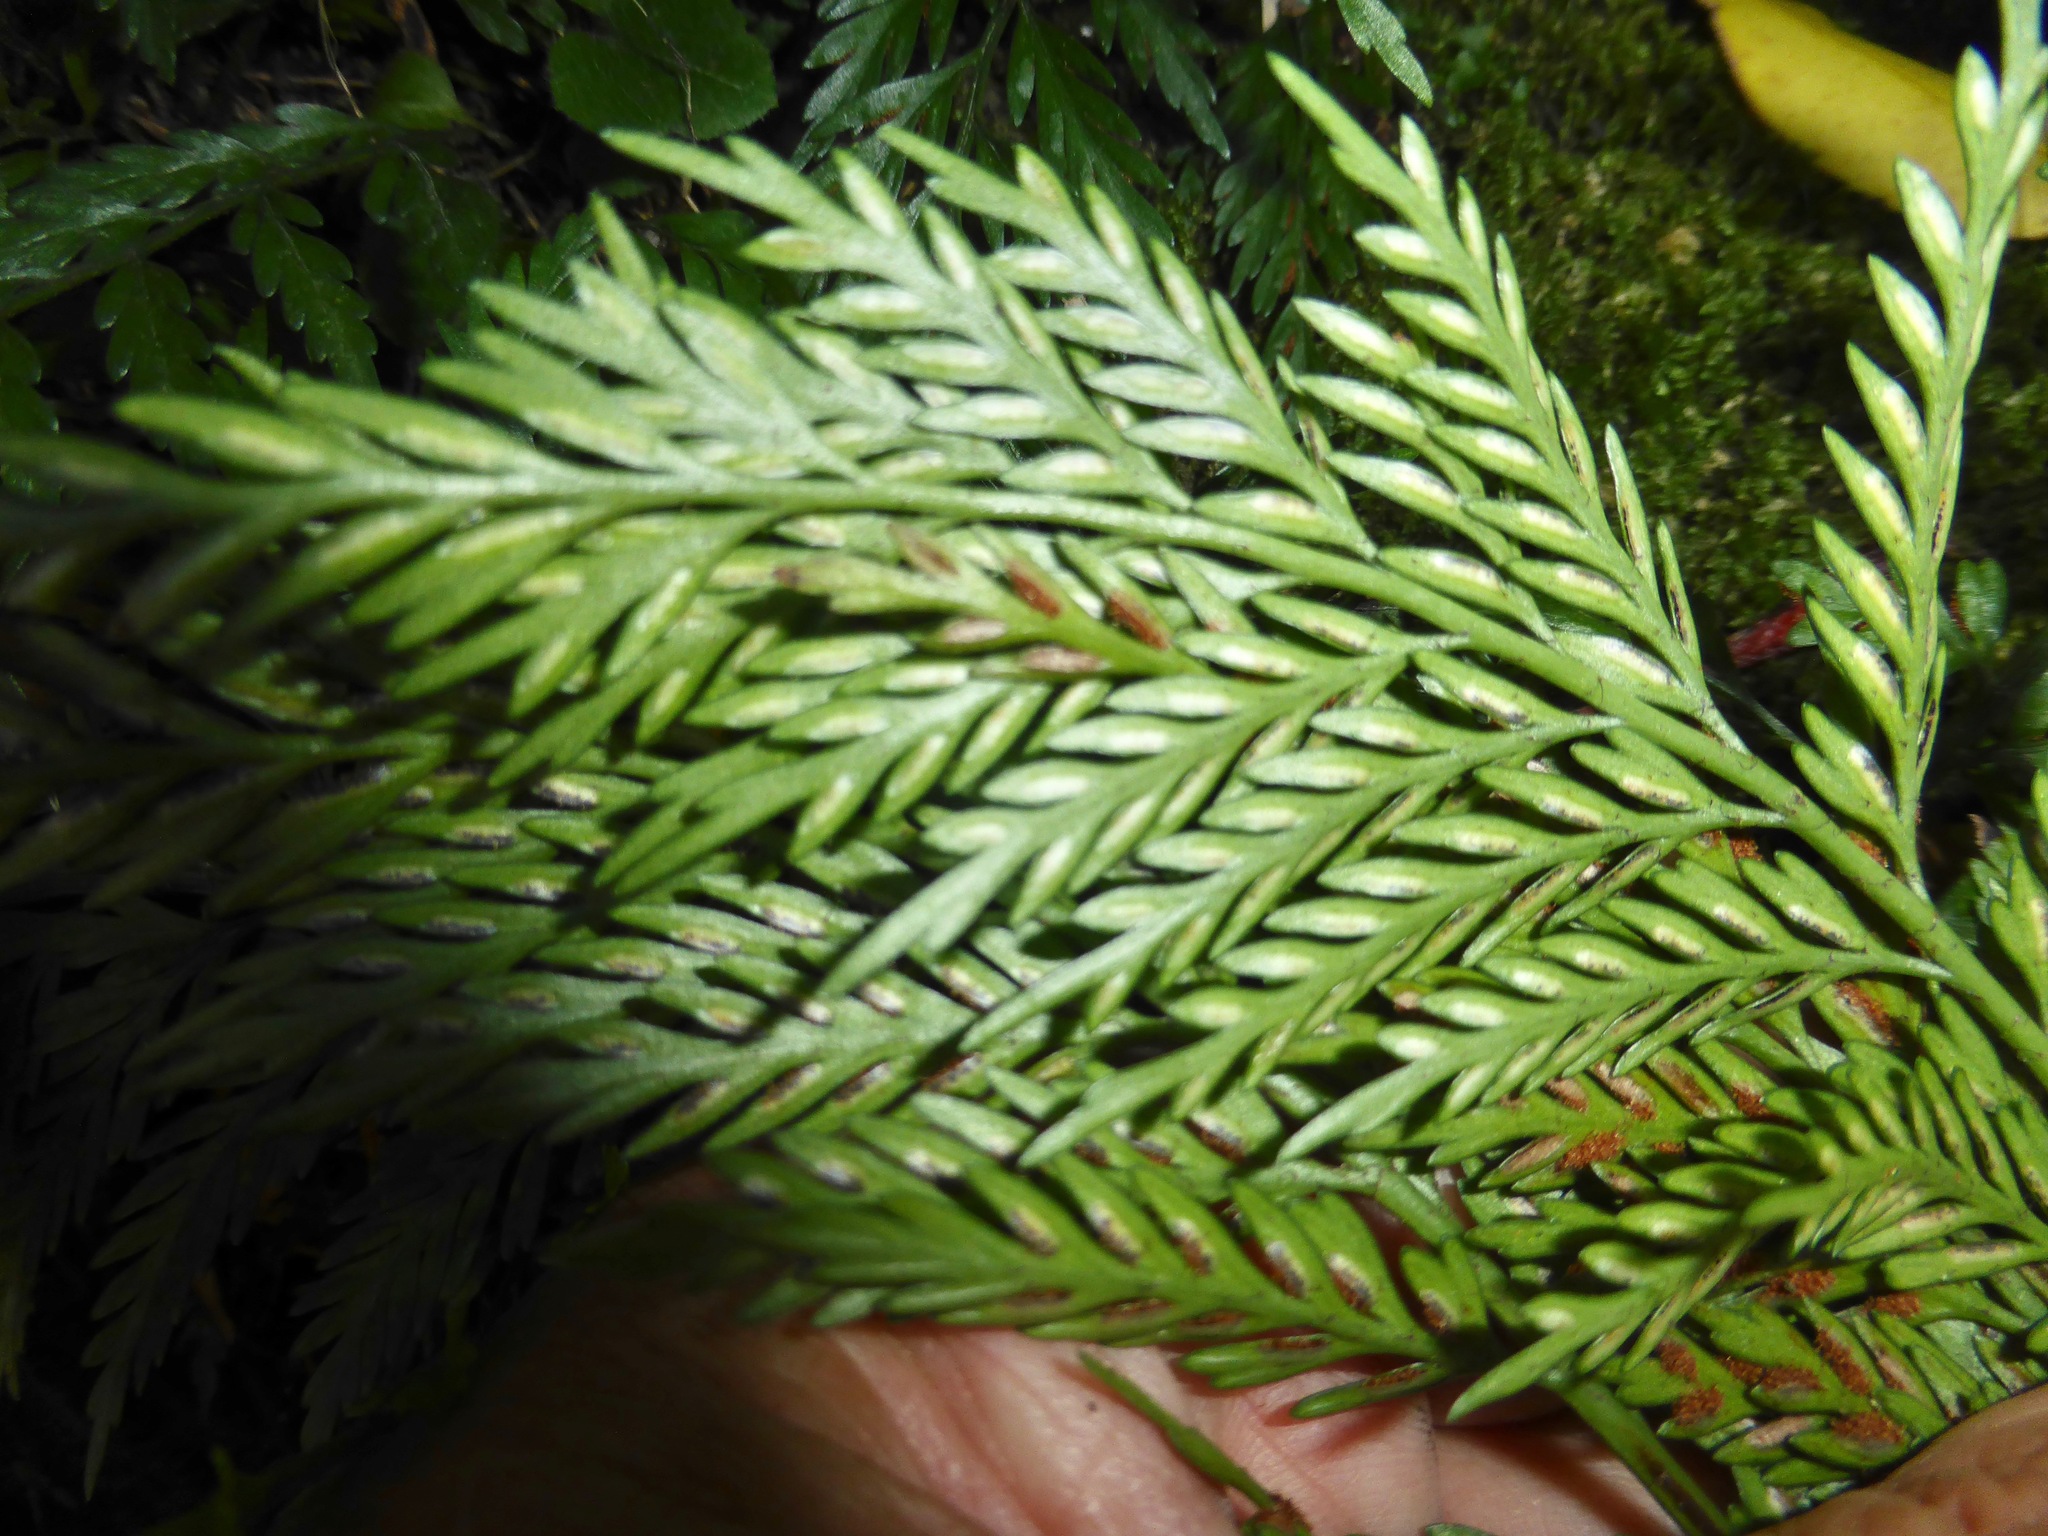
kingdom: Plantae
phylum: Tracheophyta
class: Polypodiopsida
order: Polypodiales
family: Aspleniaceae
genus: Asplenium
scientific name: Asplenium appendiculatum
